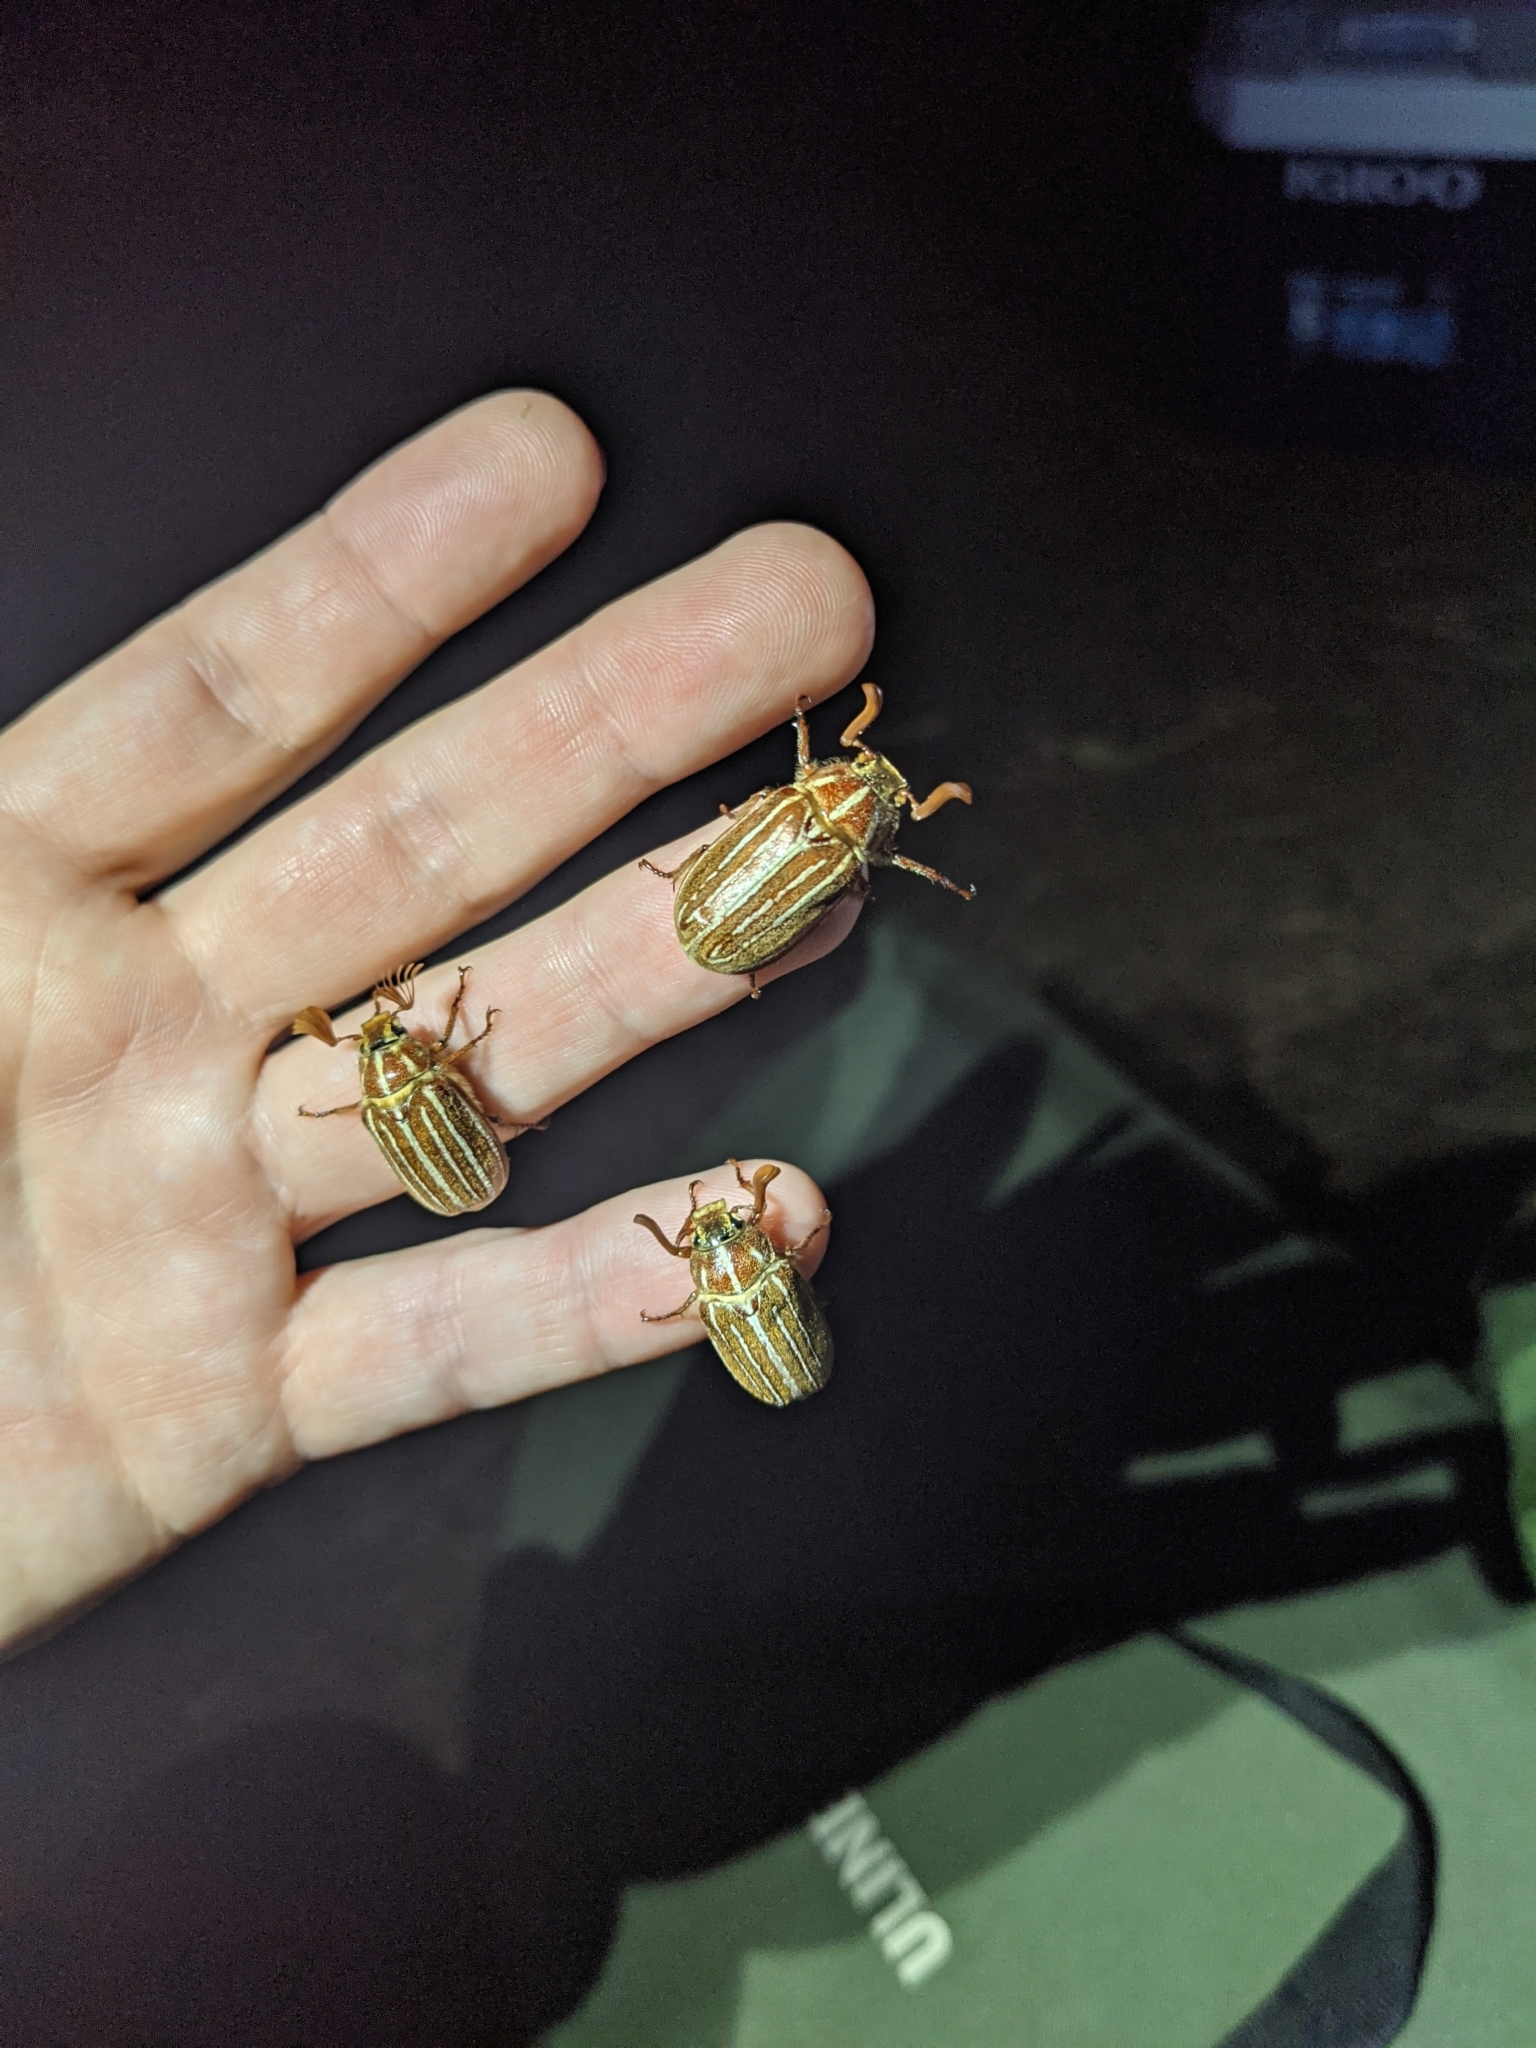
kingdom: Animalia
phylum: Arthropoda
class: Insecta
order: Coleoptera
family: Scarabaeidae
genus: Polyphylla
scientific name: Polyphylla decemlineata
